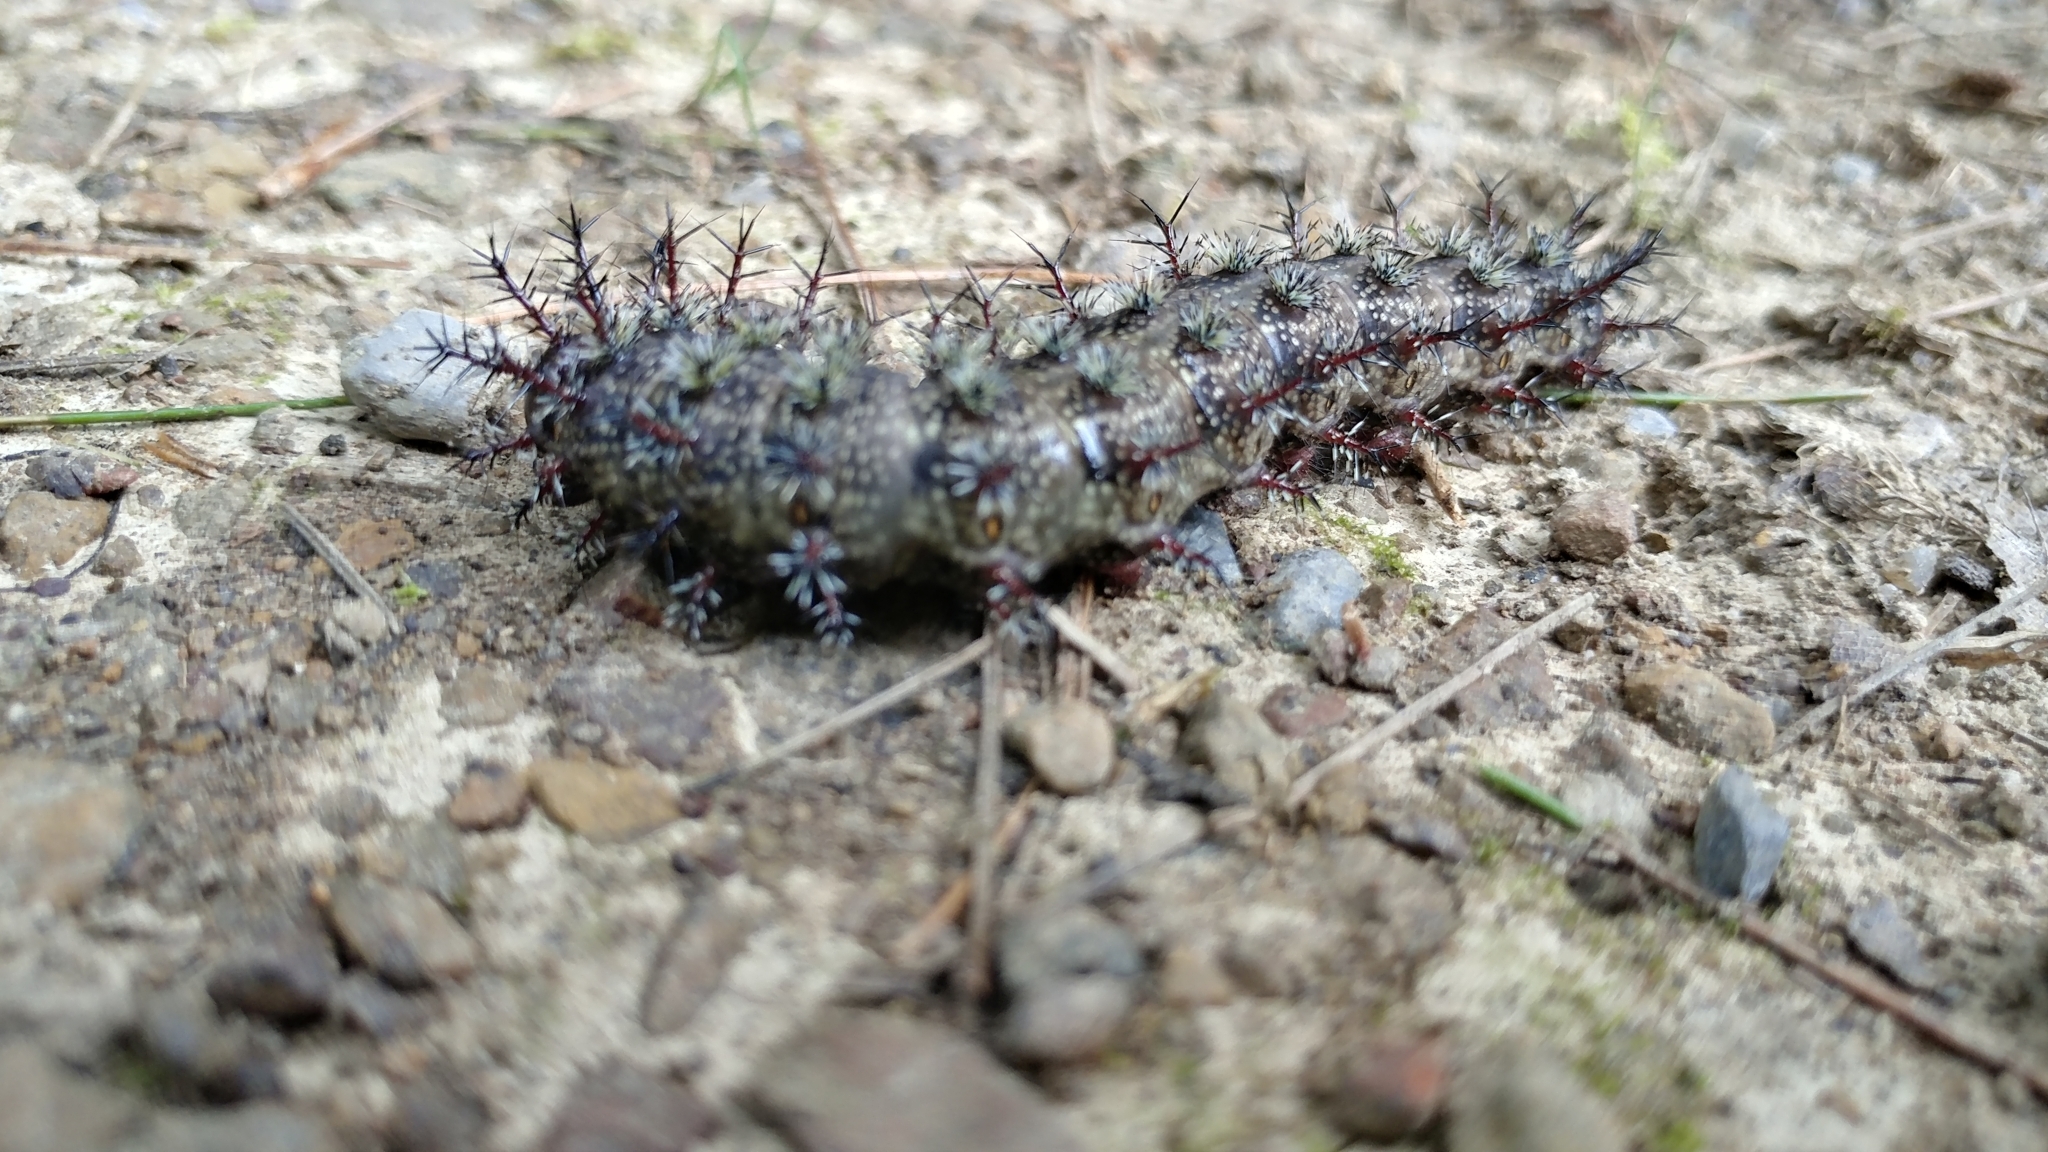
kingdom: Animalia
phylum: Arthropoda
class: Insecta
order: Lepidoptera
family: Saturniidae
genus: Hemileuca
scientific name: Hemileuca maia
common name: Eastern buckmoth
